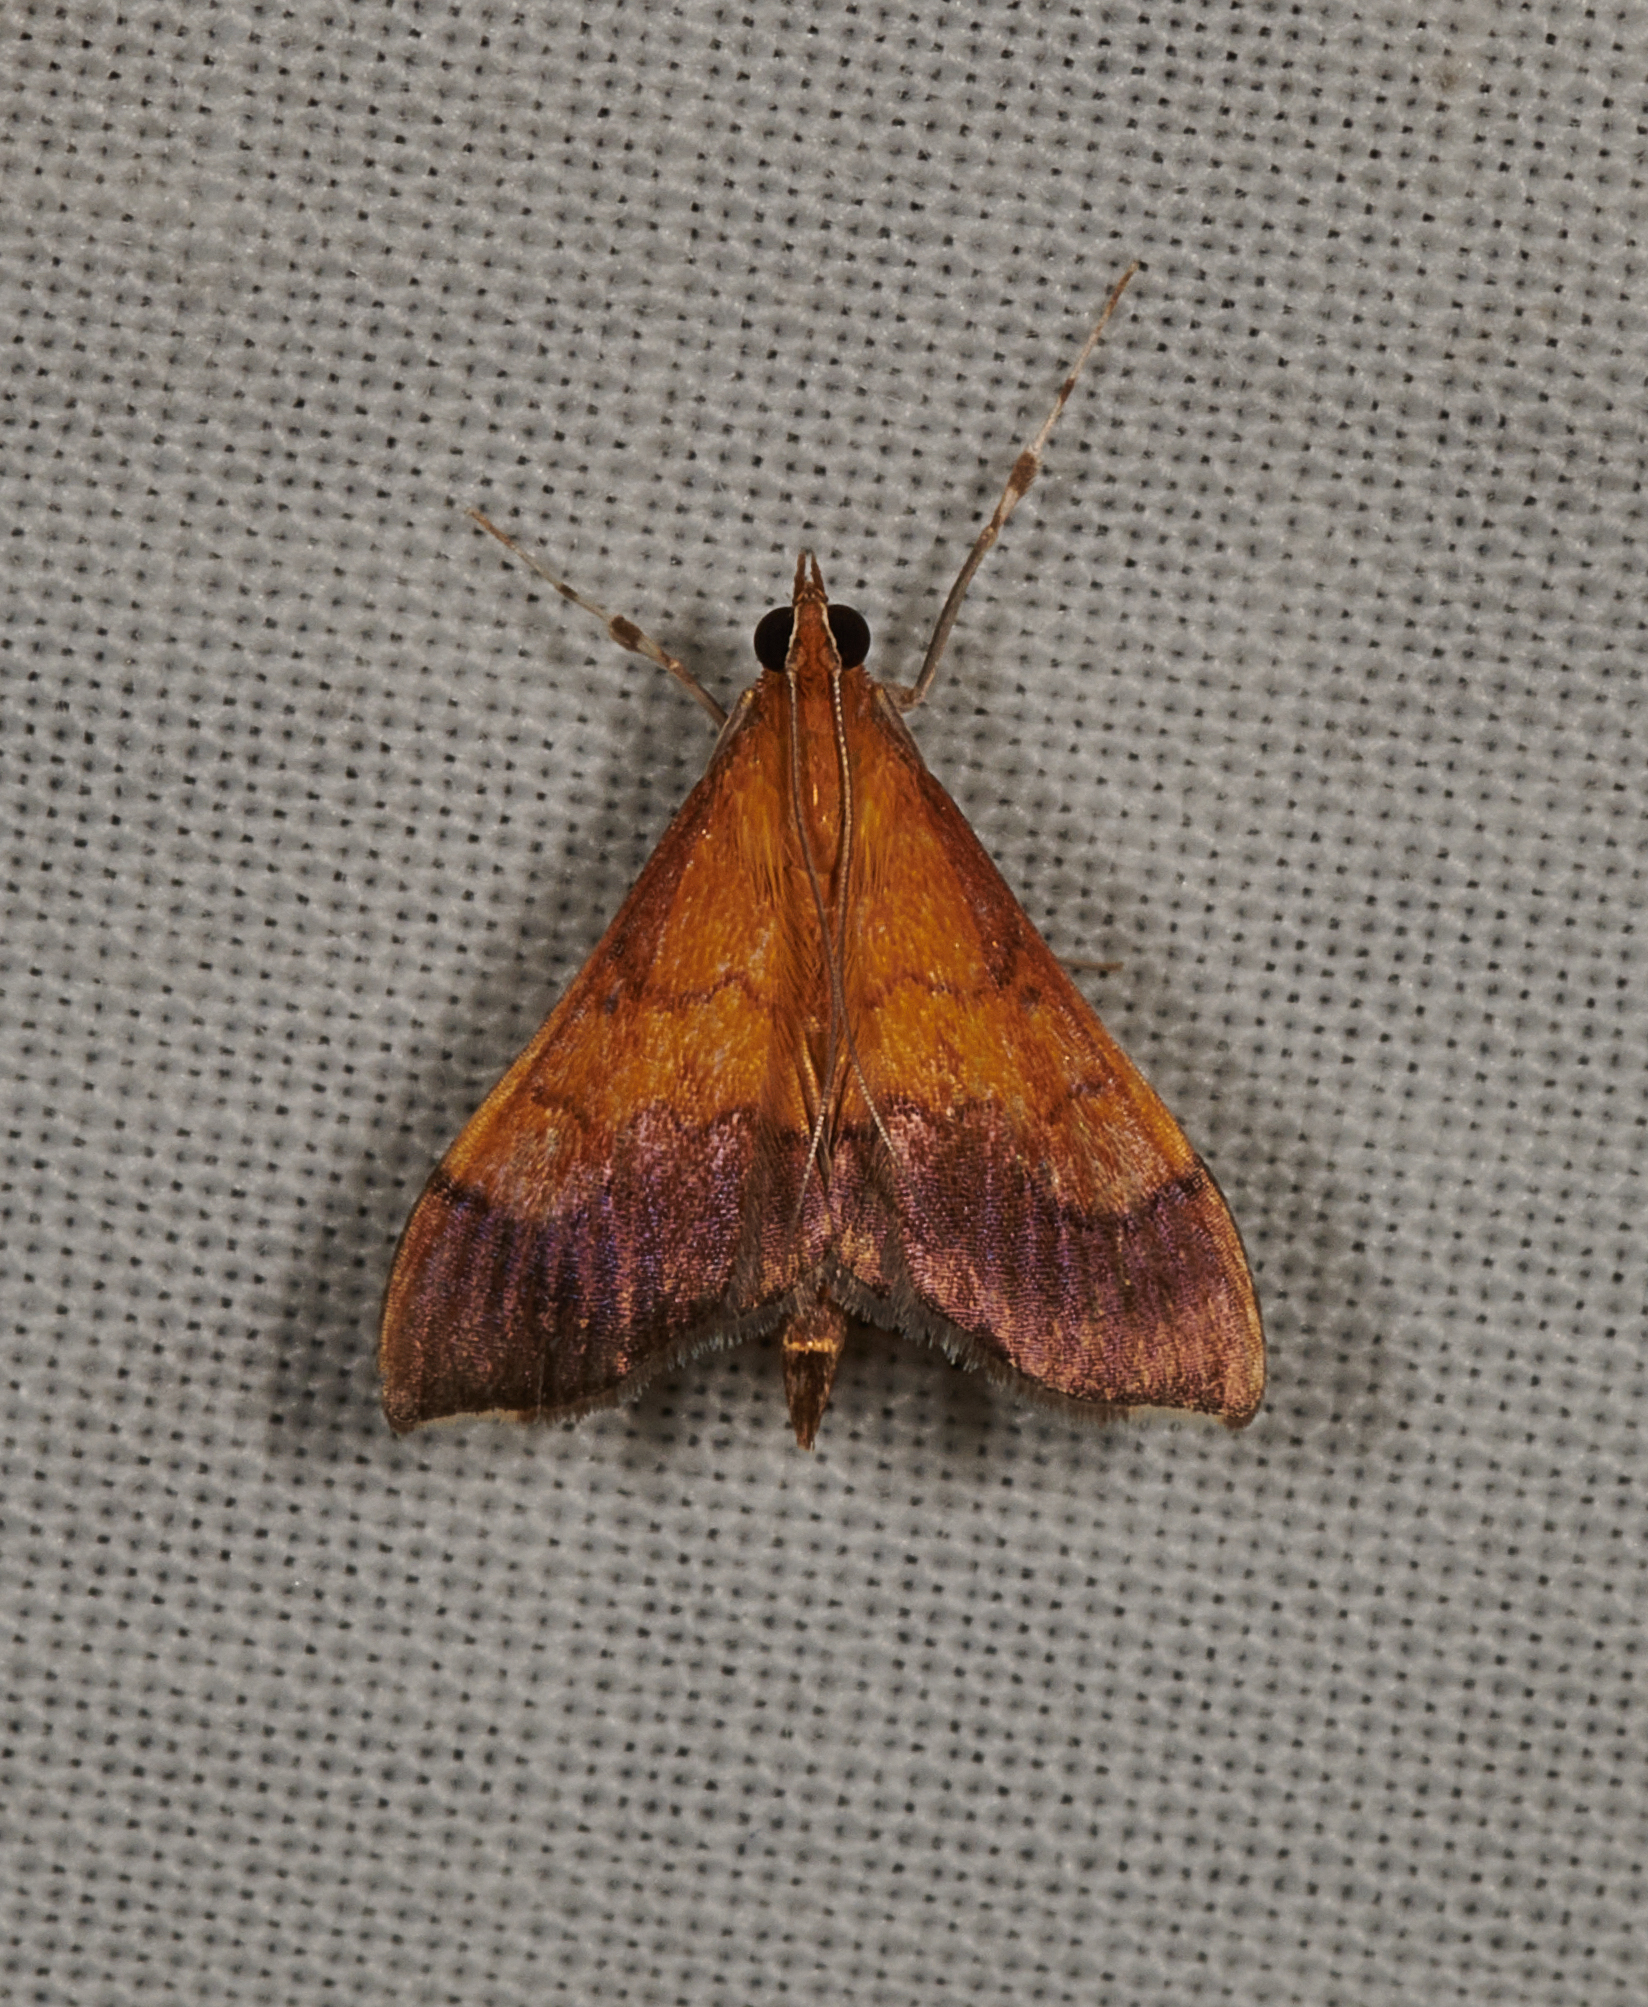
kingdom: Animalia
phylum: Arthropoda
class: Insecta
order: Lepidoptera
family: Crambidae
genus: Pyrausta
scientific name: Pyrausta bicoloralis
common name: Bicolored pyrausta moth
